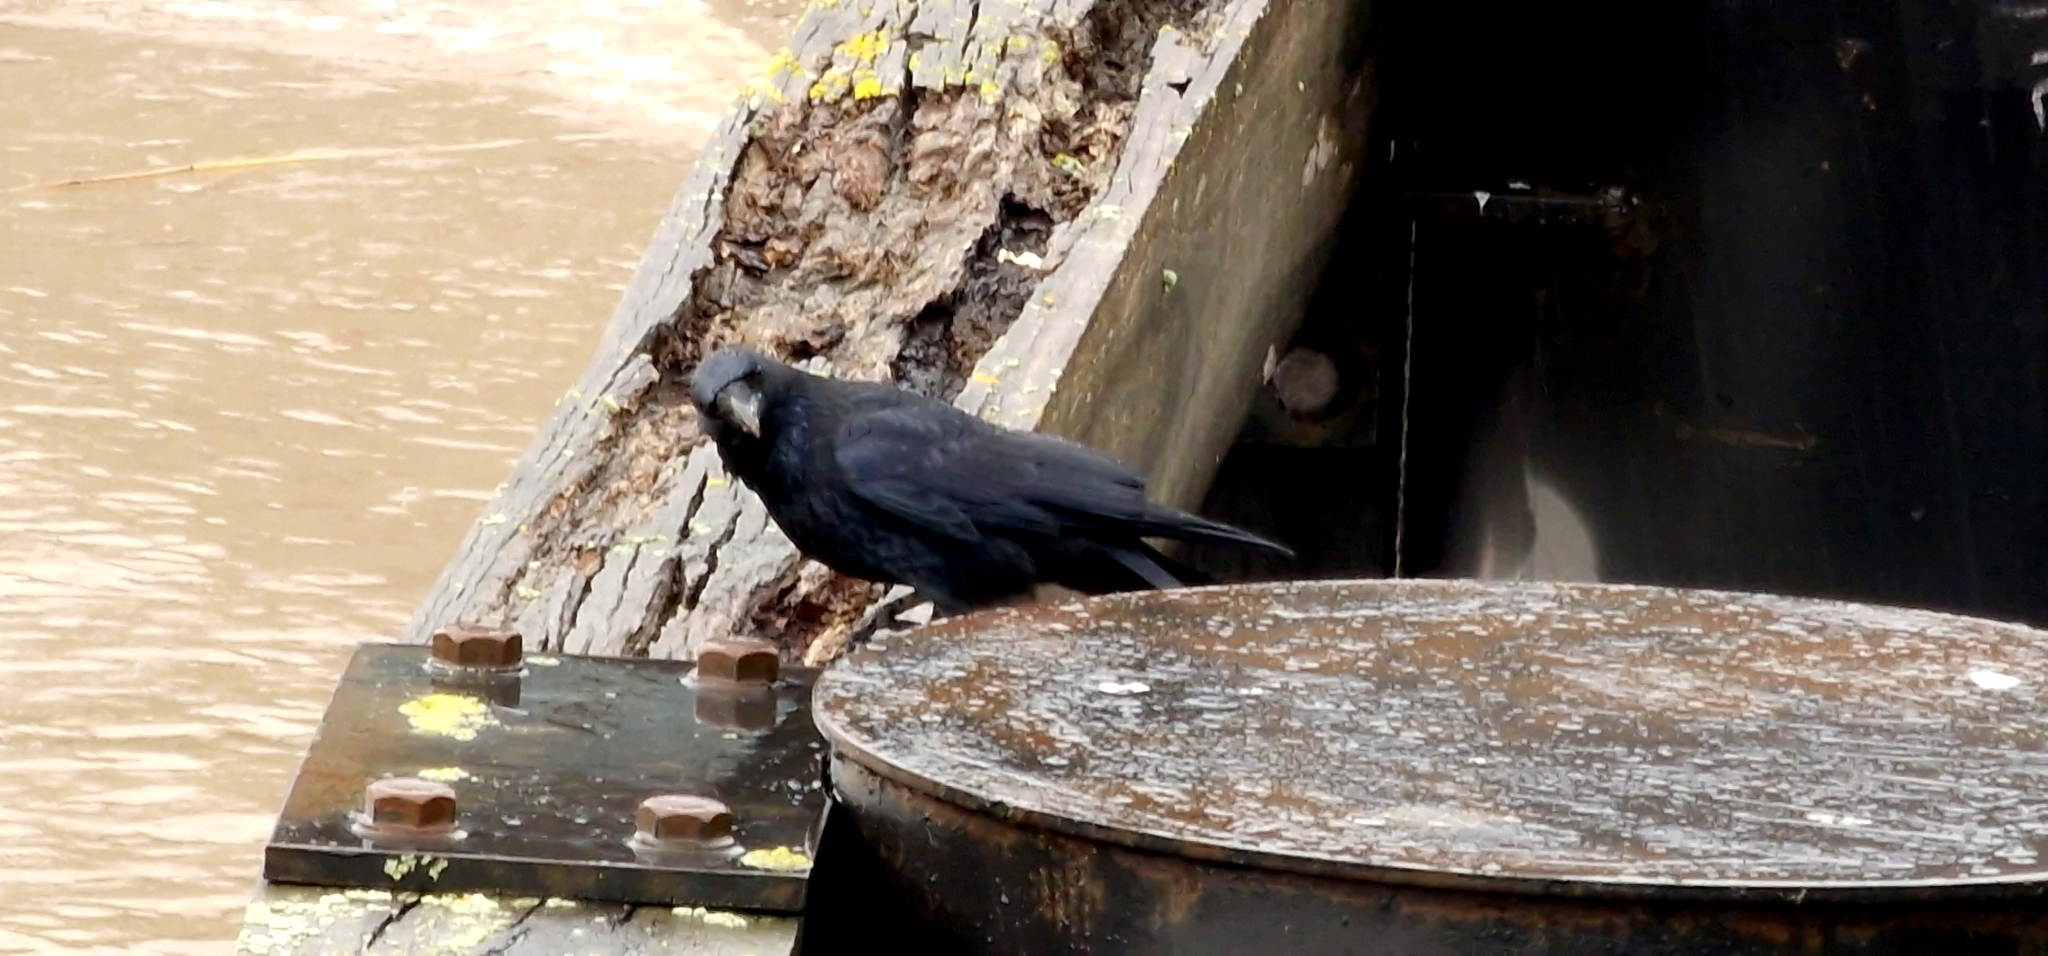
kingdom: Animalia
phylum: Chordata
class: Aves
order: Passeriformes
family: Corvidae
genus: Corvus
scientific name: Corvus corone
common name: Carrion crow
